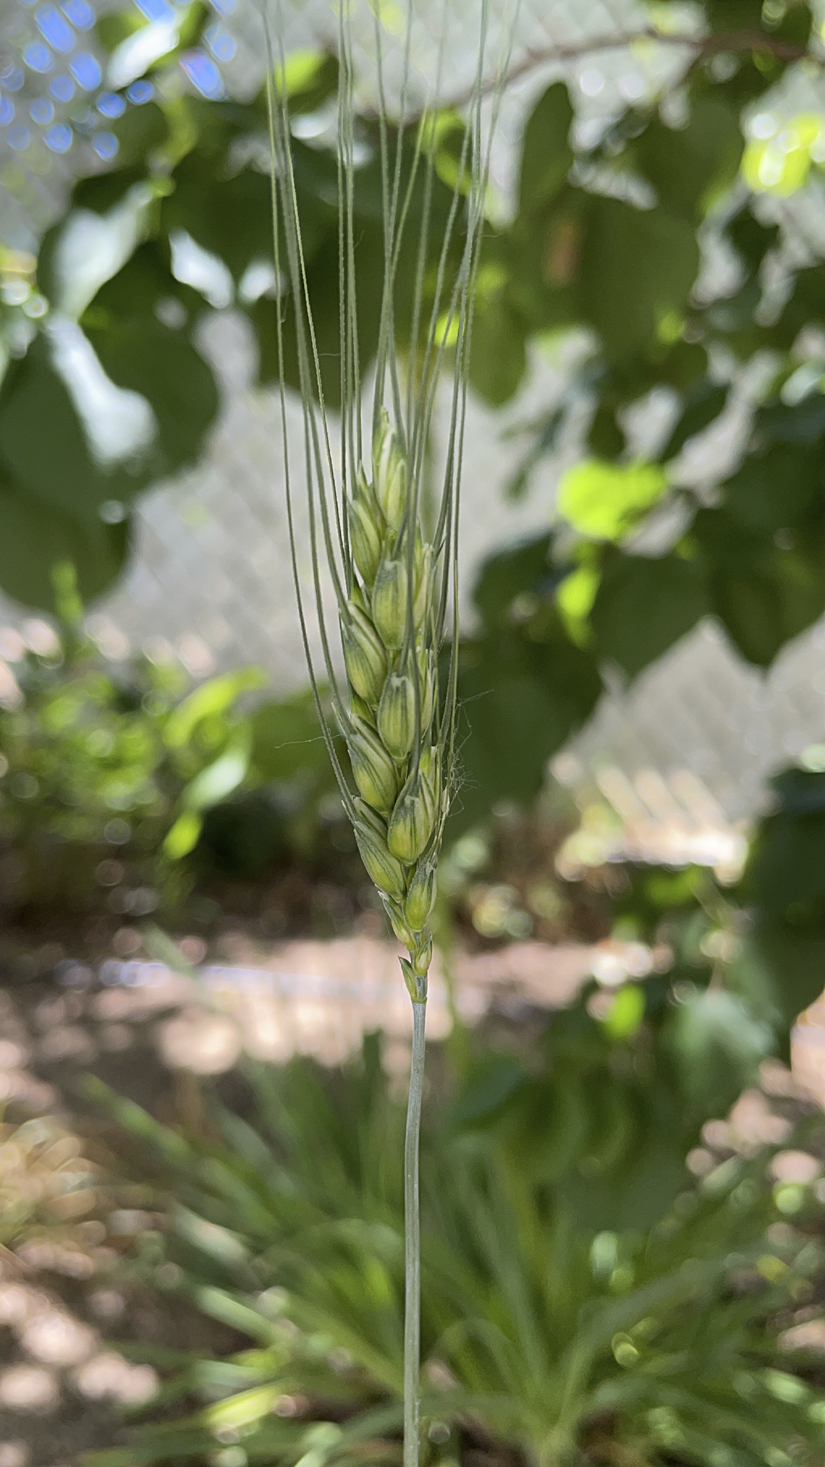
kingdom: Plantae
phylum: Tracheophyta
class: Liliopsida
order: Poales
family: Poaceae
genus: Triticum
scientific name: Triticum aestivum
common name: Common wheat
